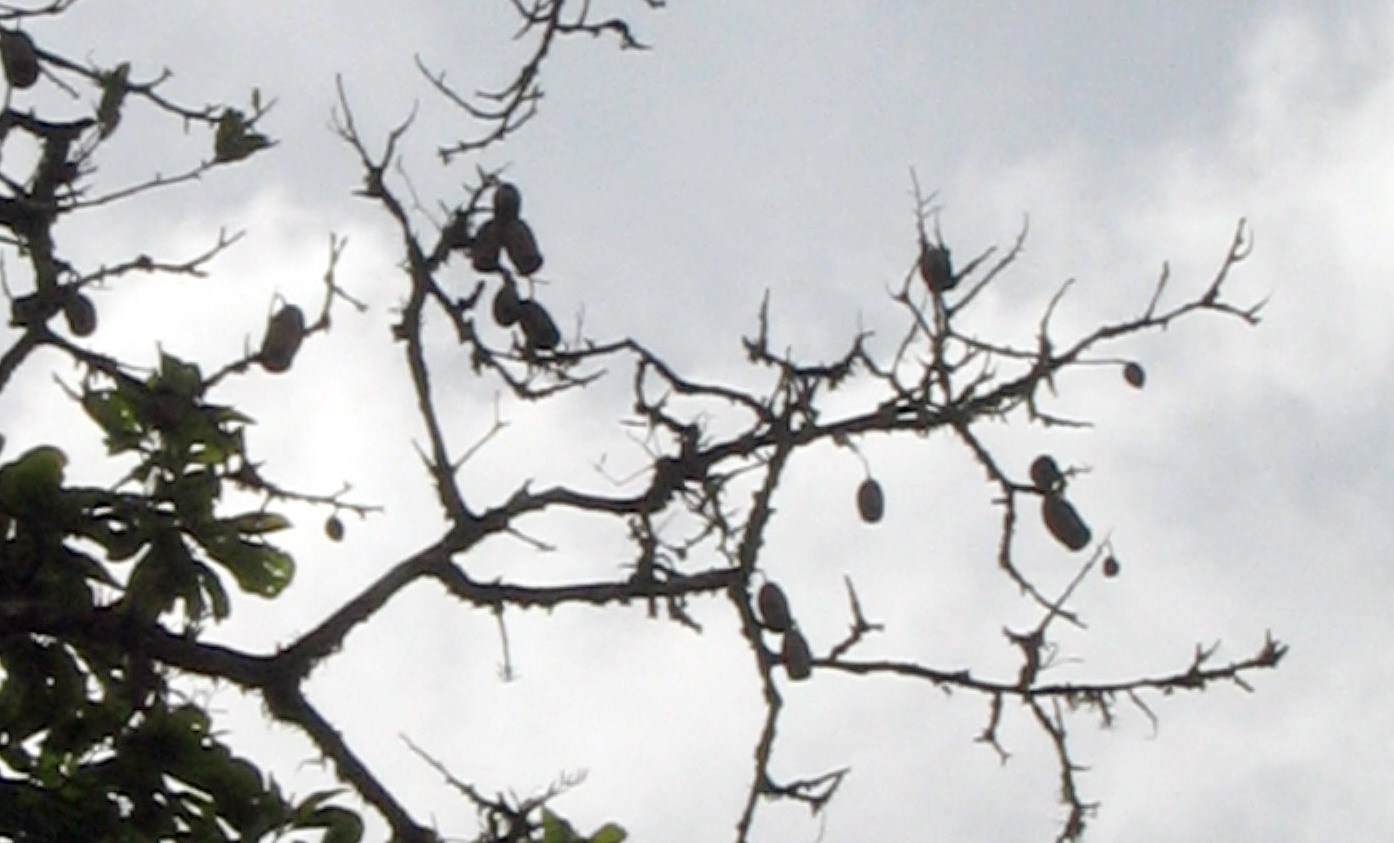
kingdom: Plantae
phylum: Tracheophyta
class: Magnoliopsida
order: Ericales
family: Lecythidaceae
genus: Couratari
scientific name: Couratari guianensis
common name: Fine-leaf wadara
